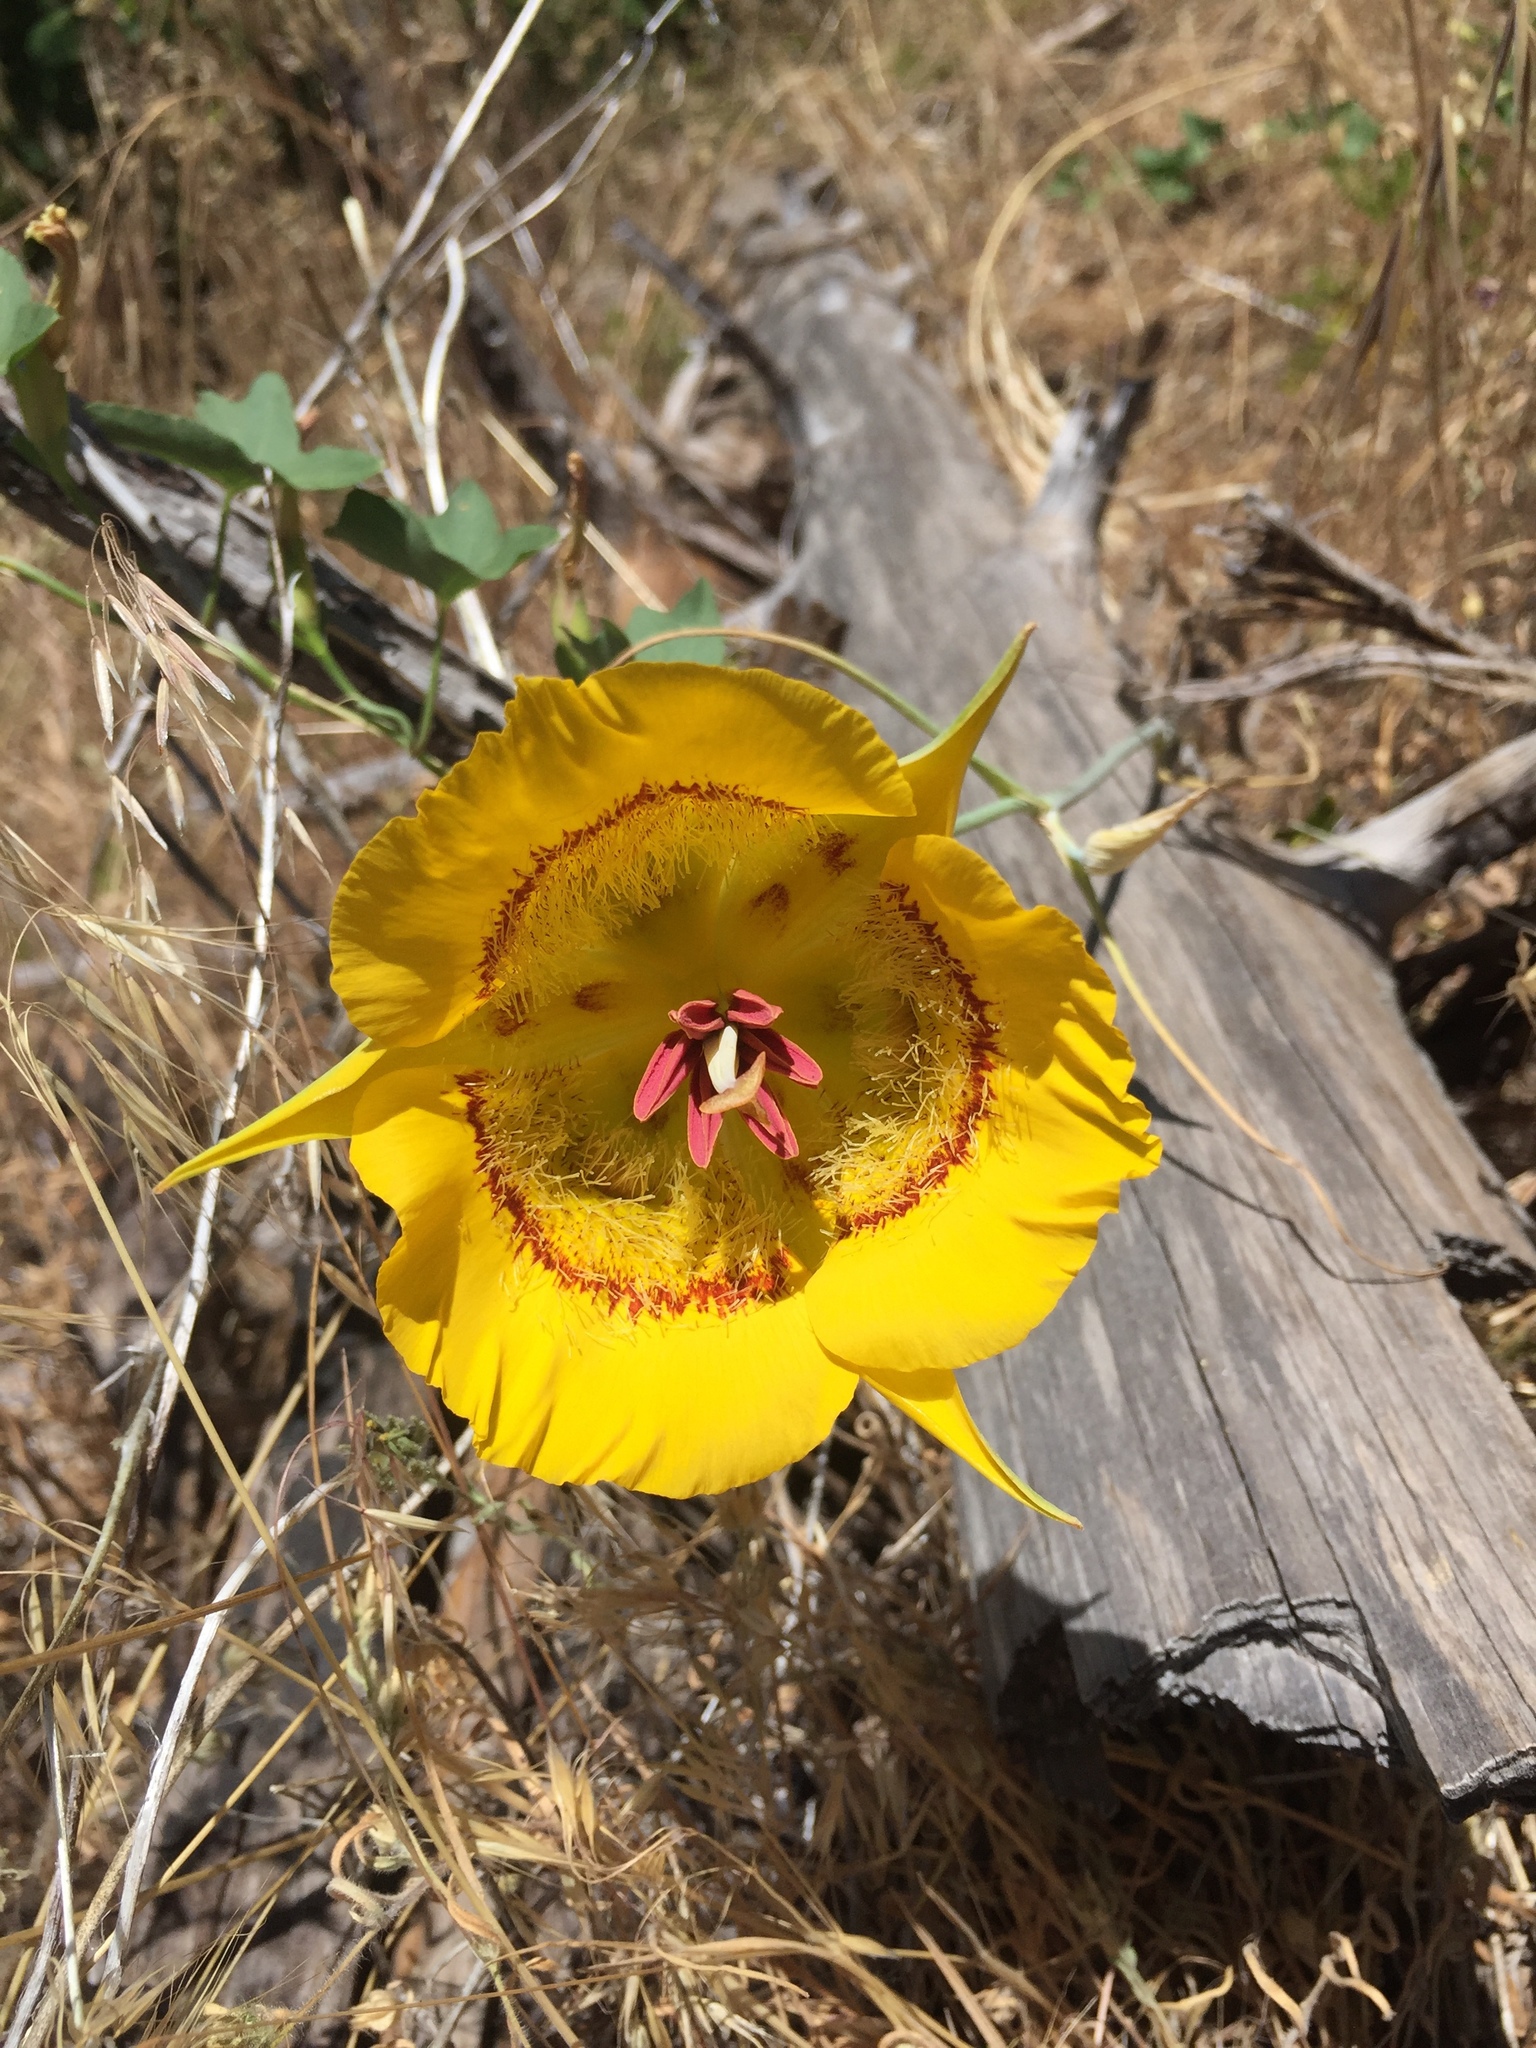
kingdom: Plantae
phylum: Tracheophyta
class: Liliopsida
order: Liliales
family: Liliaceae
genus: Calochortus
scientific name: Calochortus clavatus
